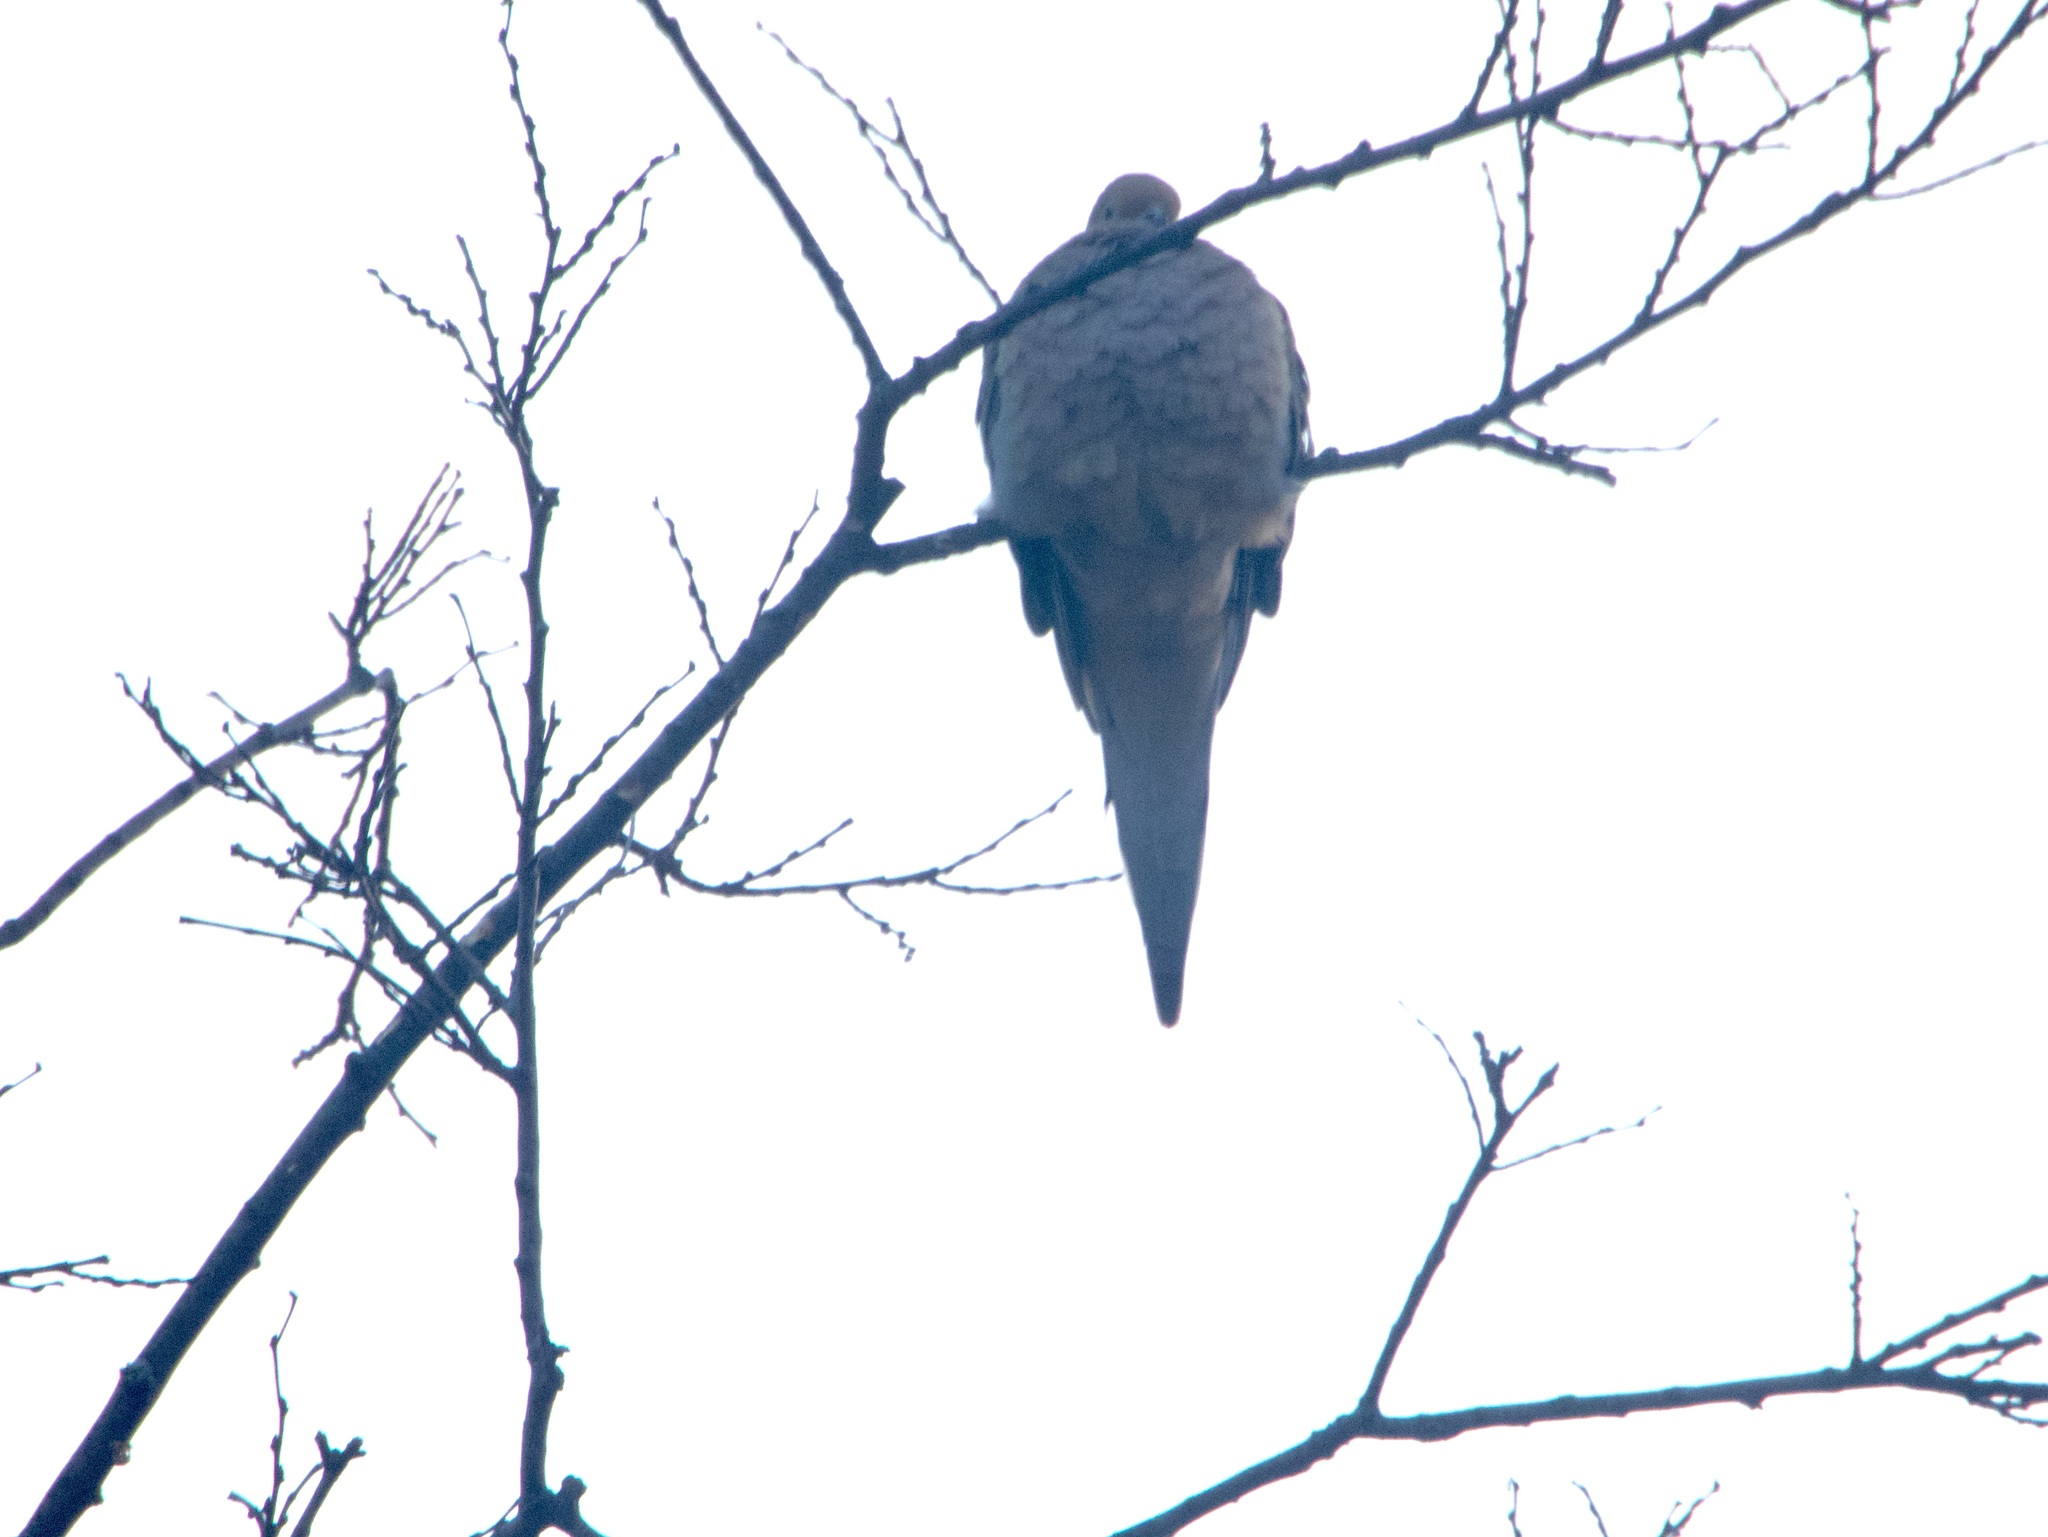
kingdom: Animalia
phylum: Chordata
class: Aves
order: Columbiformes
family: Columbidae
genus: Zenaida
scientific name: Zenaida macroura
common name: Mourning dove
